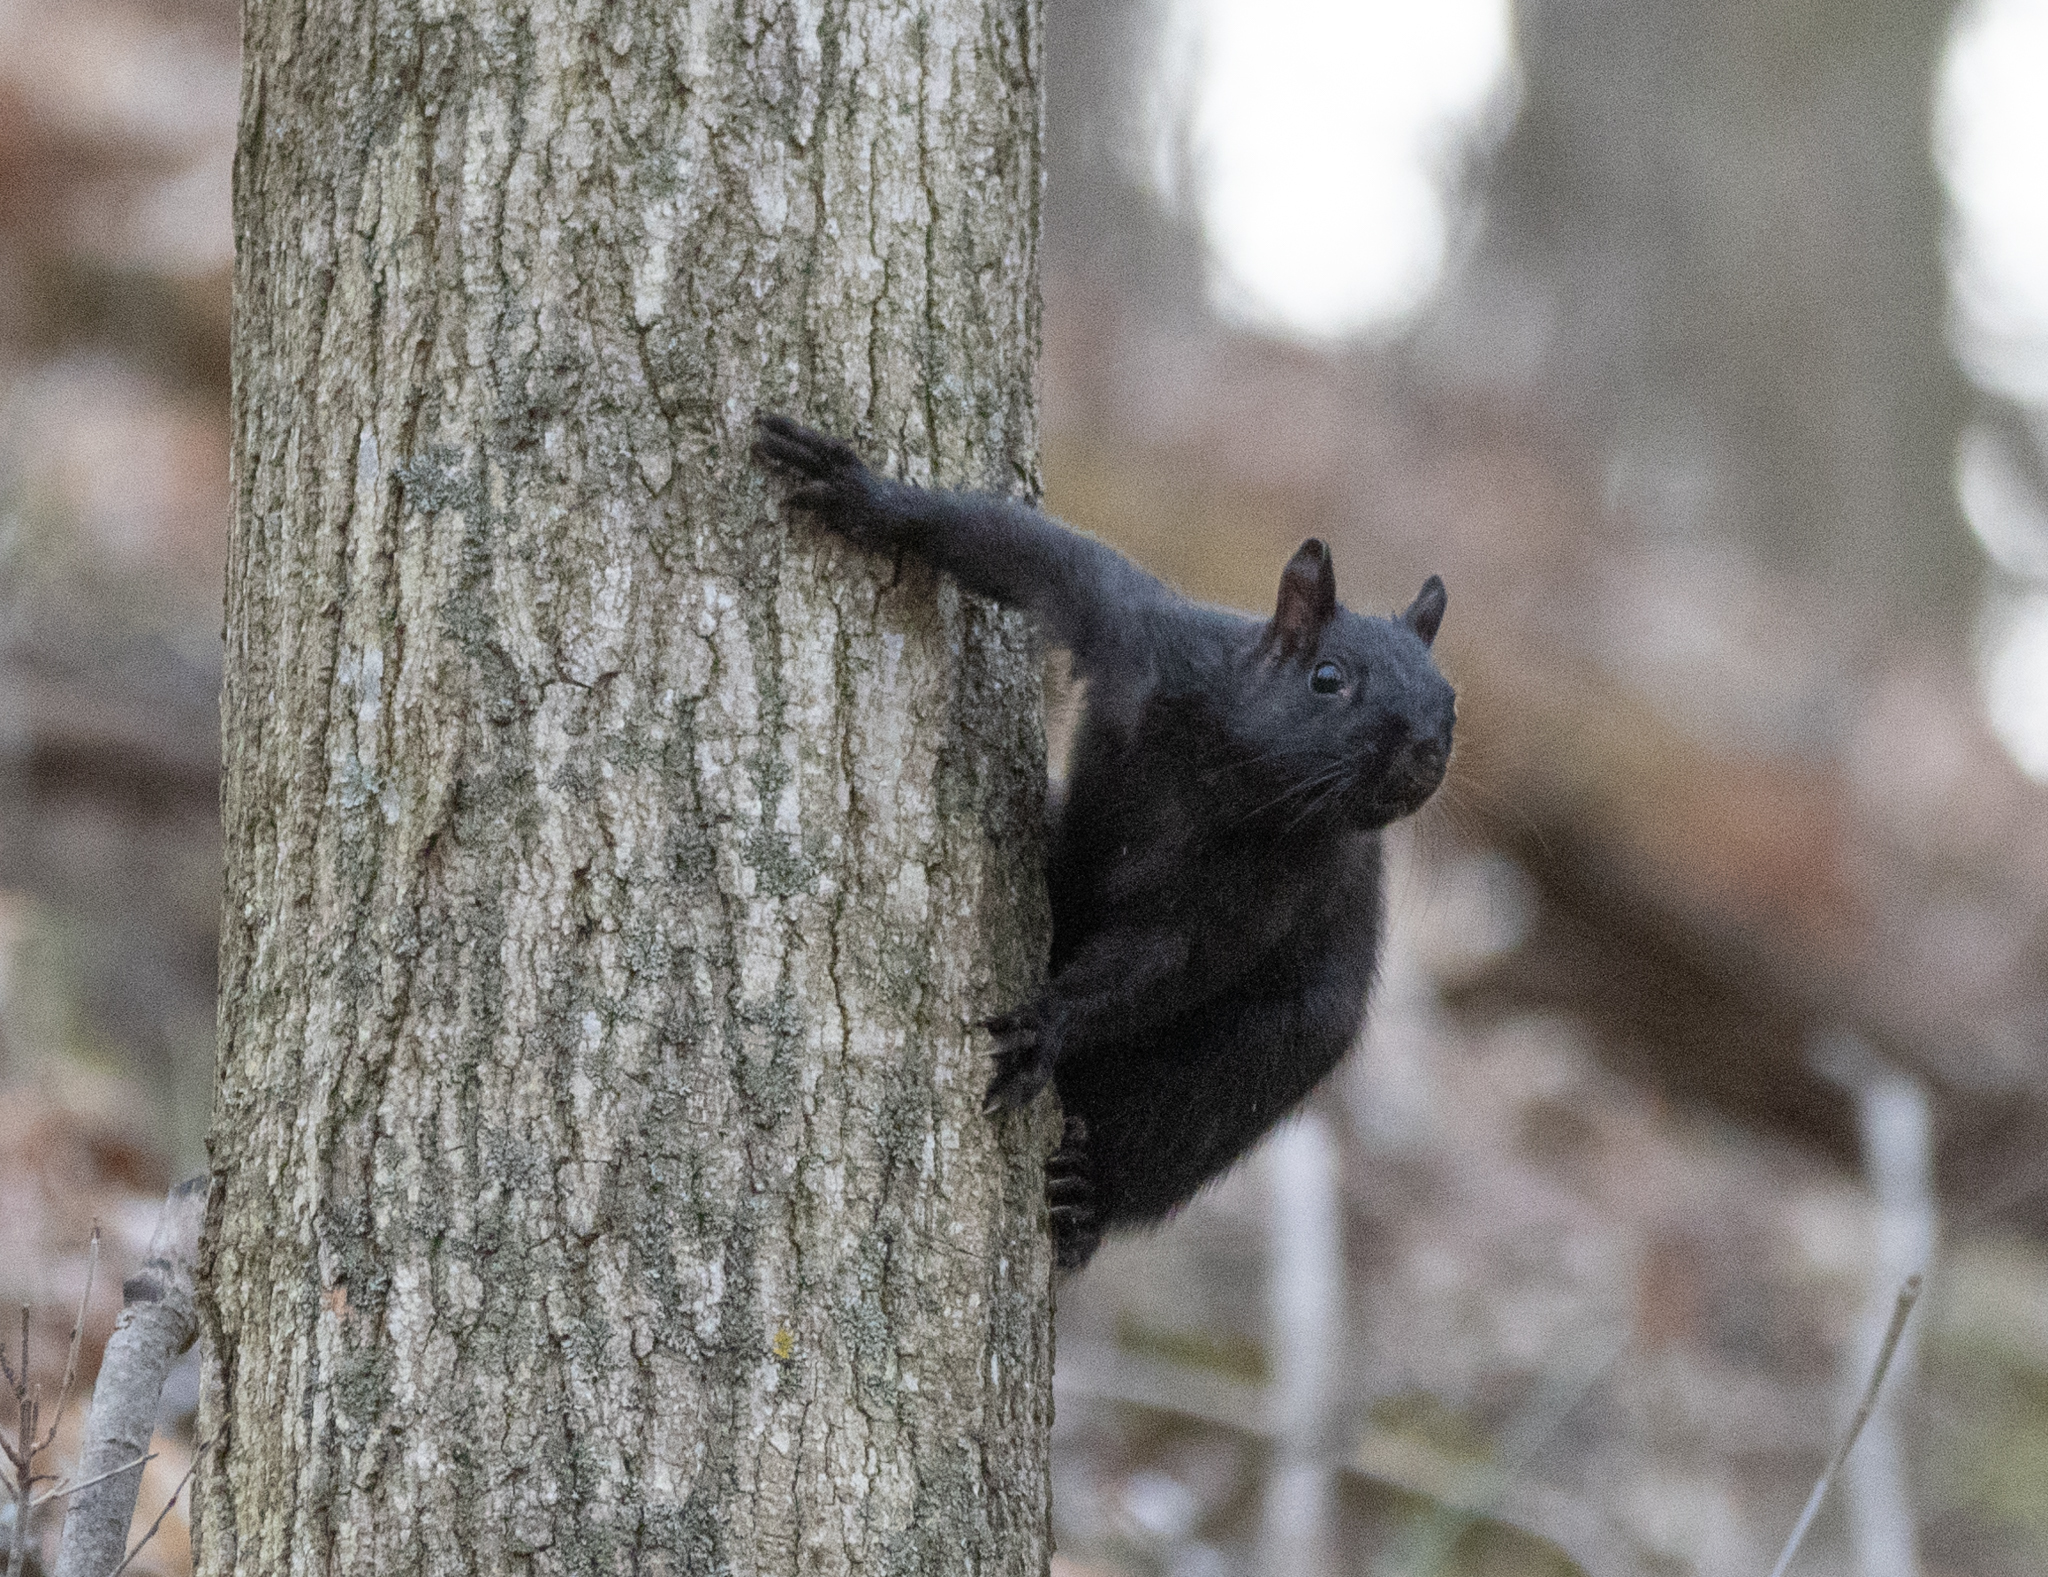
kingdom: Animalia
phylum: Chordata
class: Mammalia
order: Rodentia
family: Sciuridae
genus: Sciurus
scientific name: Sciurus carolinensis
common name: Eastern gray squirrel
